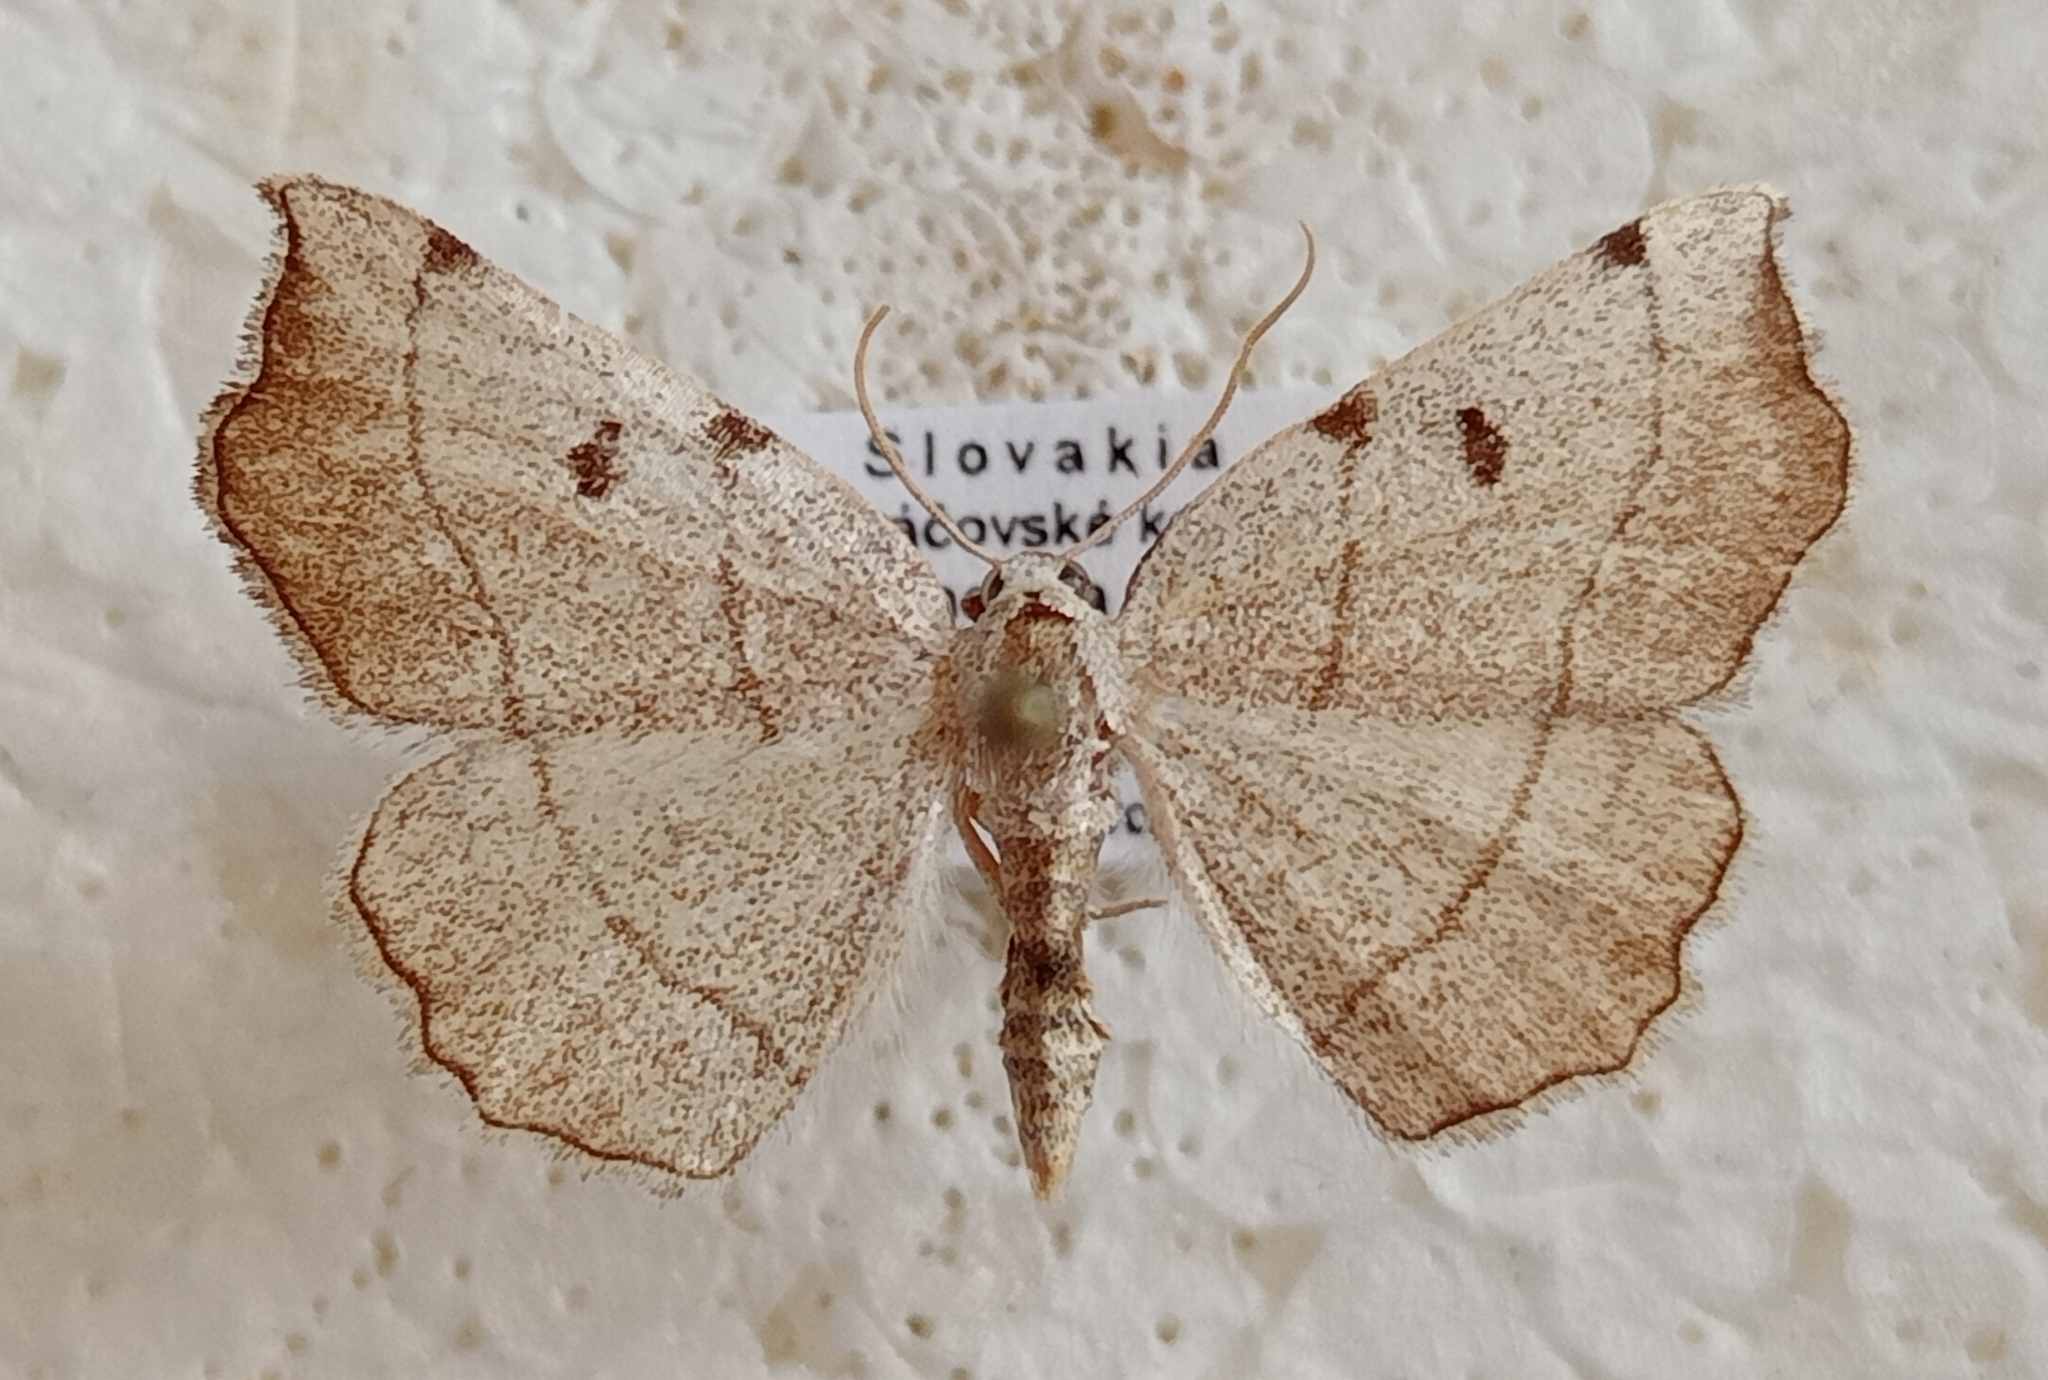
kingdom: Animalia
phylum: Arthropoda
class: Insecta
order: Lepidoptera
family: Geometridae
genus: Eilicrinia
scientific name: Eilicrinia trinotata
